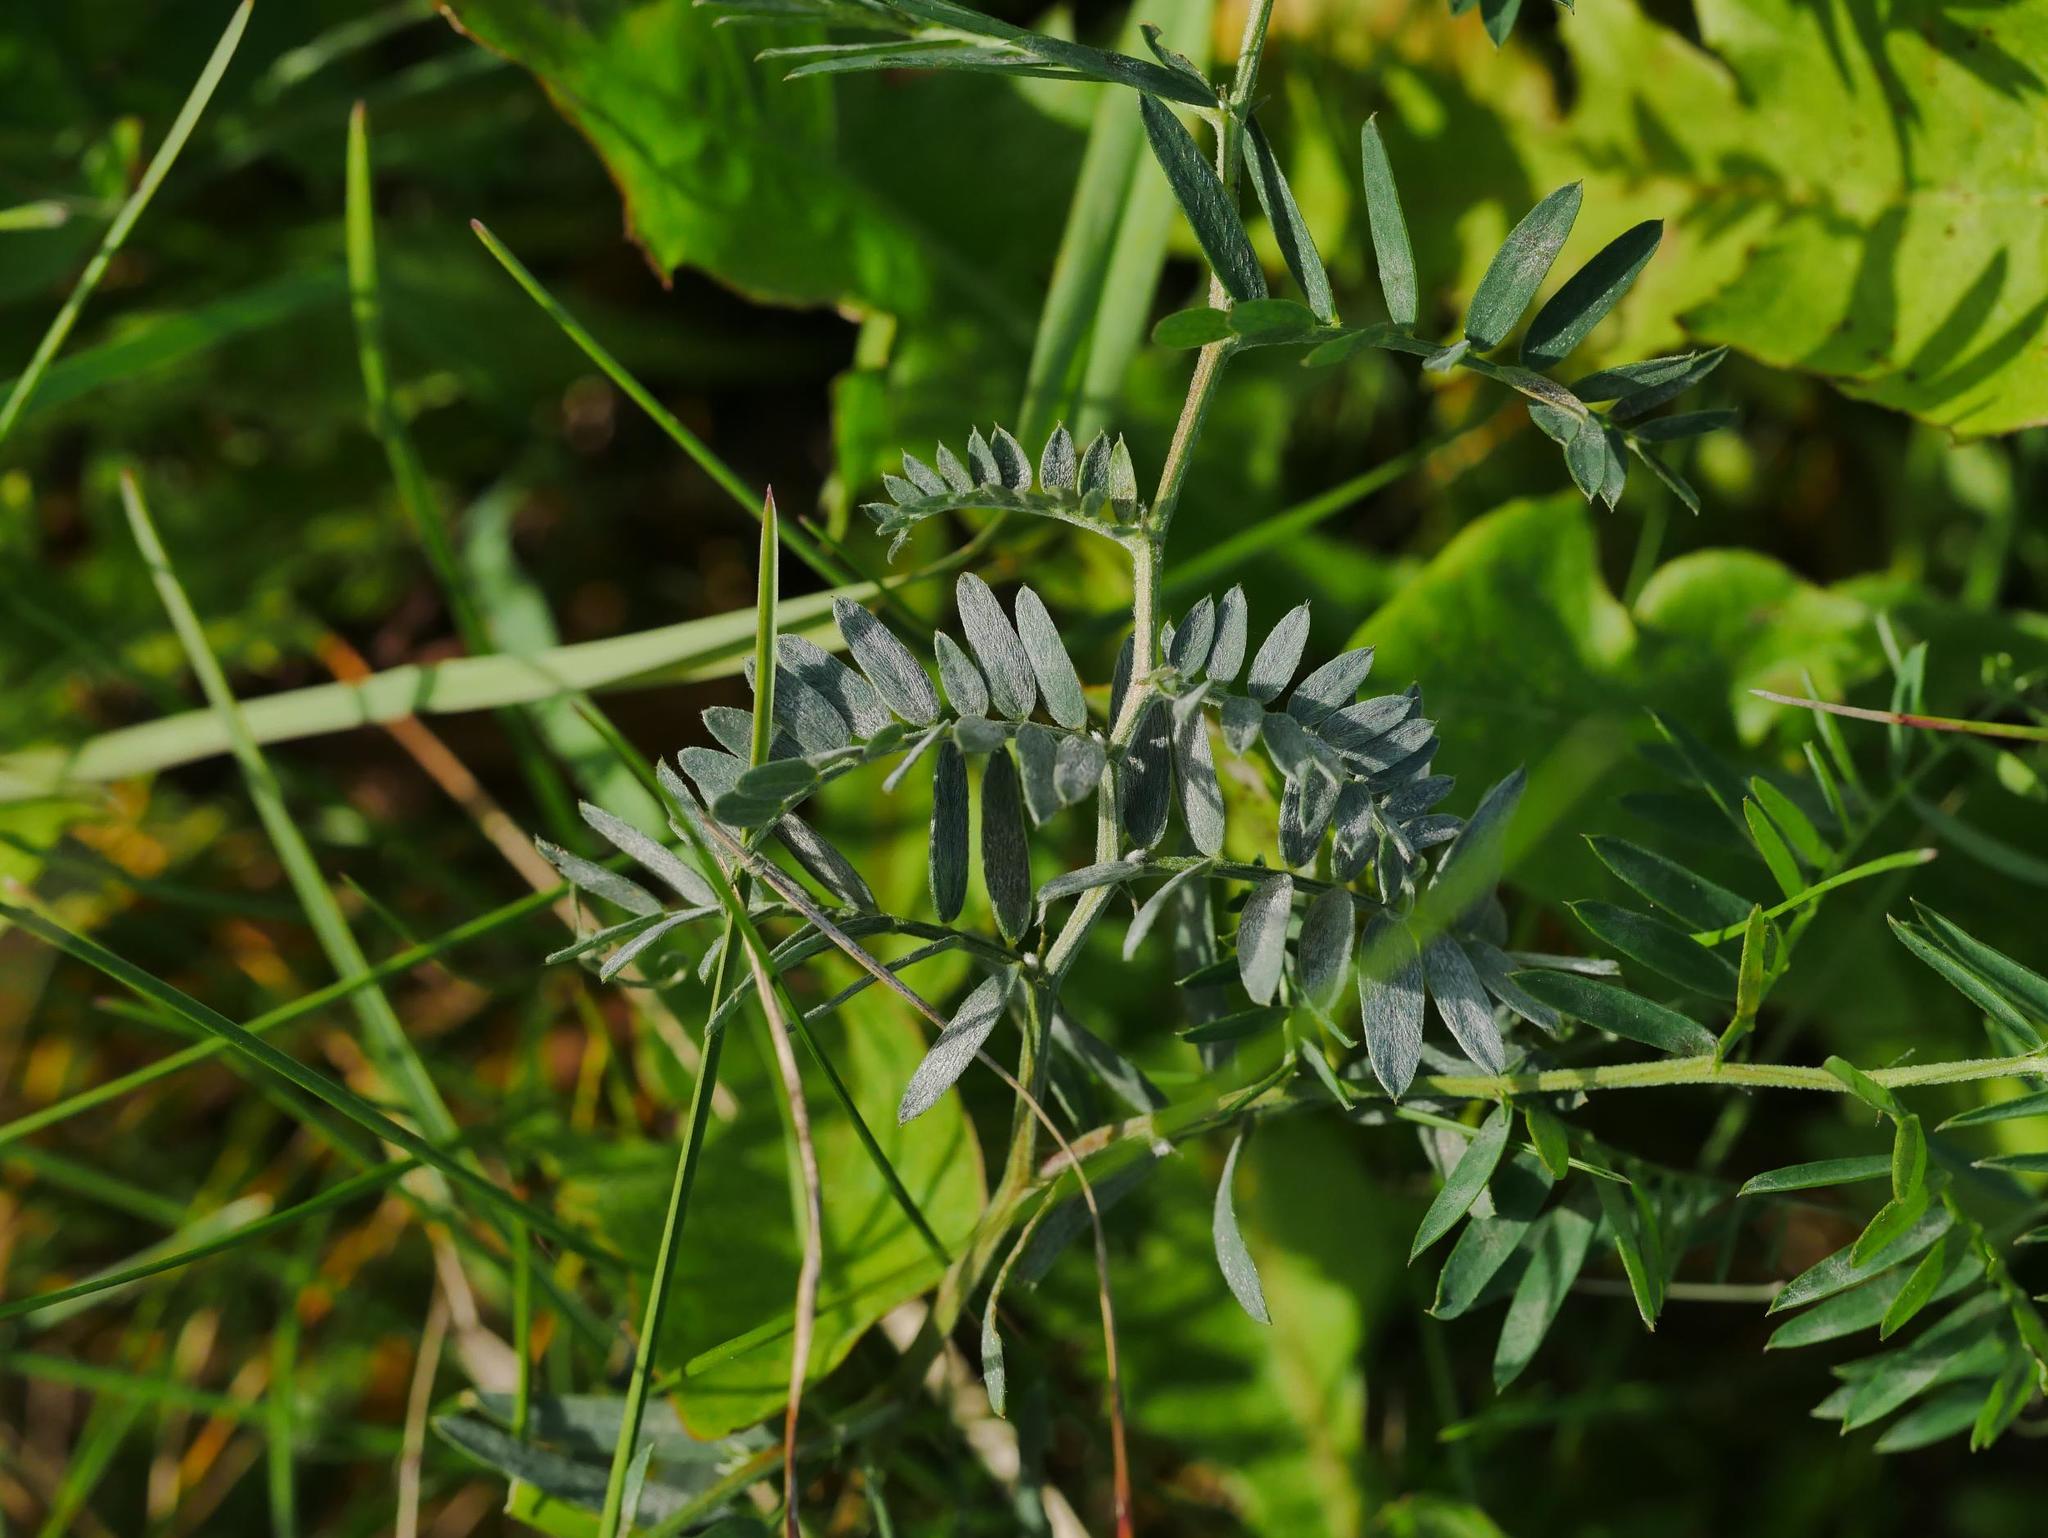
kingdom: Plantae
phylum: Tracheophyta
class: Magnoliopsida
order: Fabales
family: Fabaceae
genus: Vicia
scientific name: Vicia cracca
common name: Bird vetch
